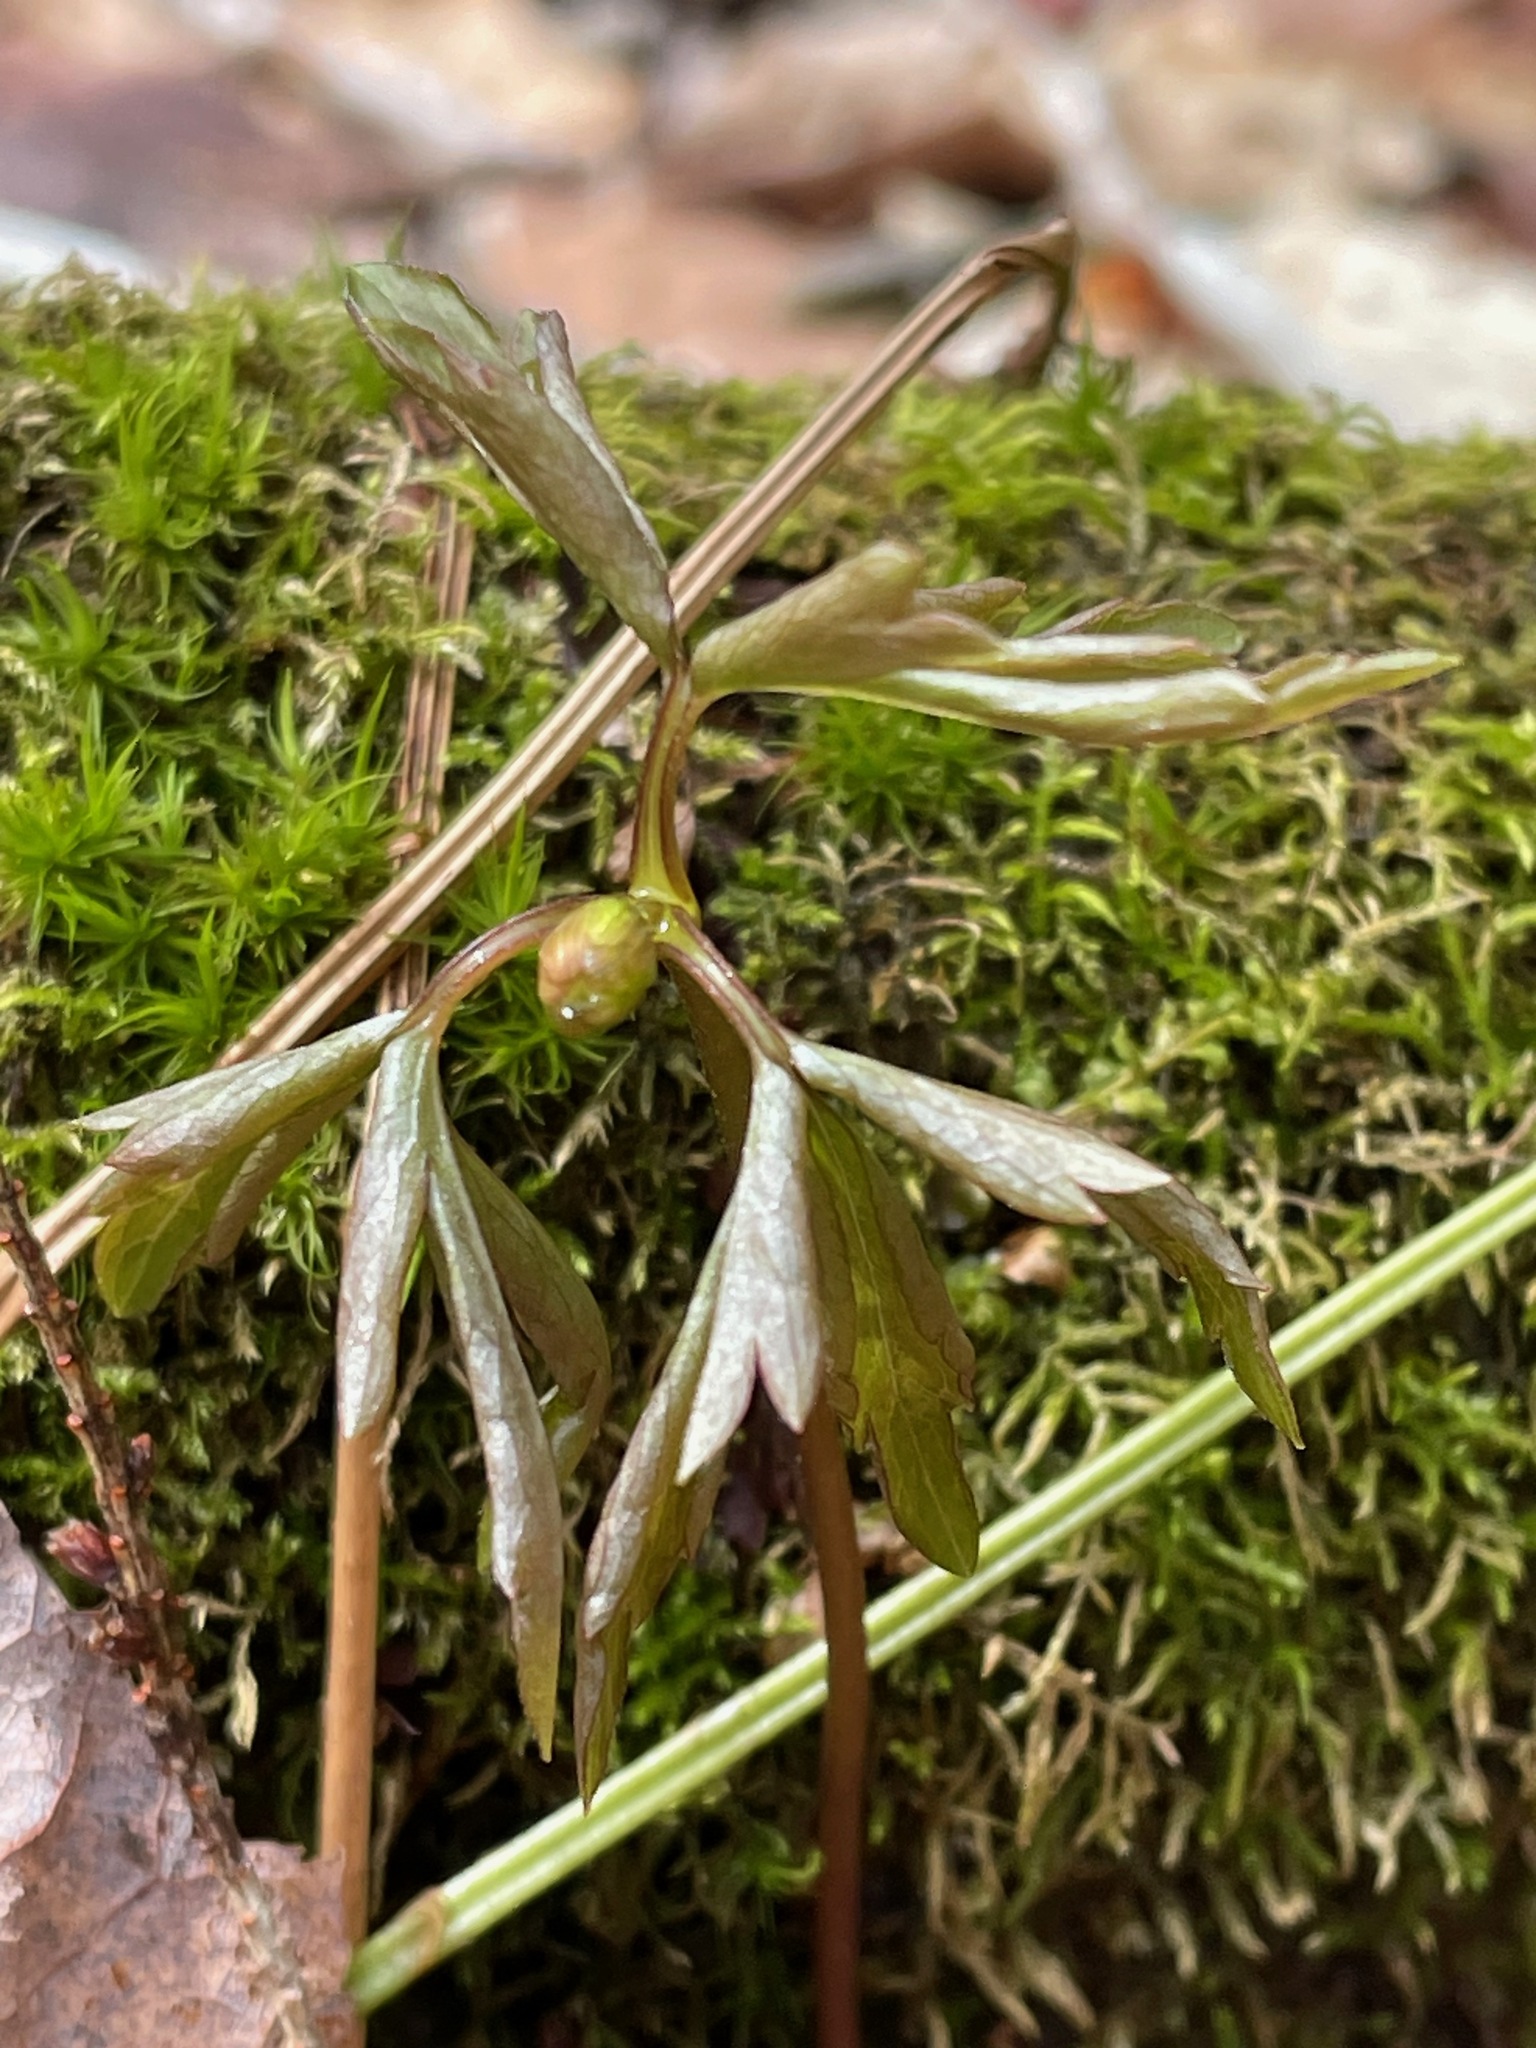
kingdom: Plantae
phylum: Tracheophyta
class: Magnoliopsida
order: Ranunculales
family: Ranunculaceae
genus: Anemone
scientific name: Anemone quinquefolia
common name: Wood anemone
